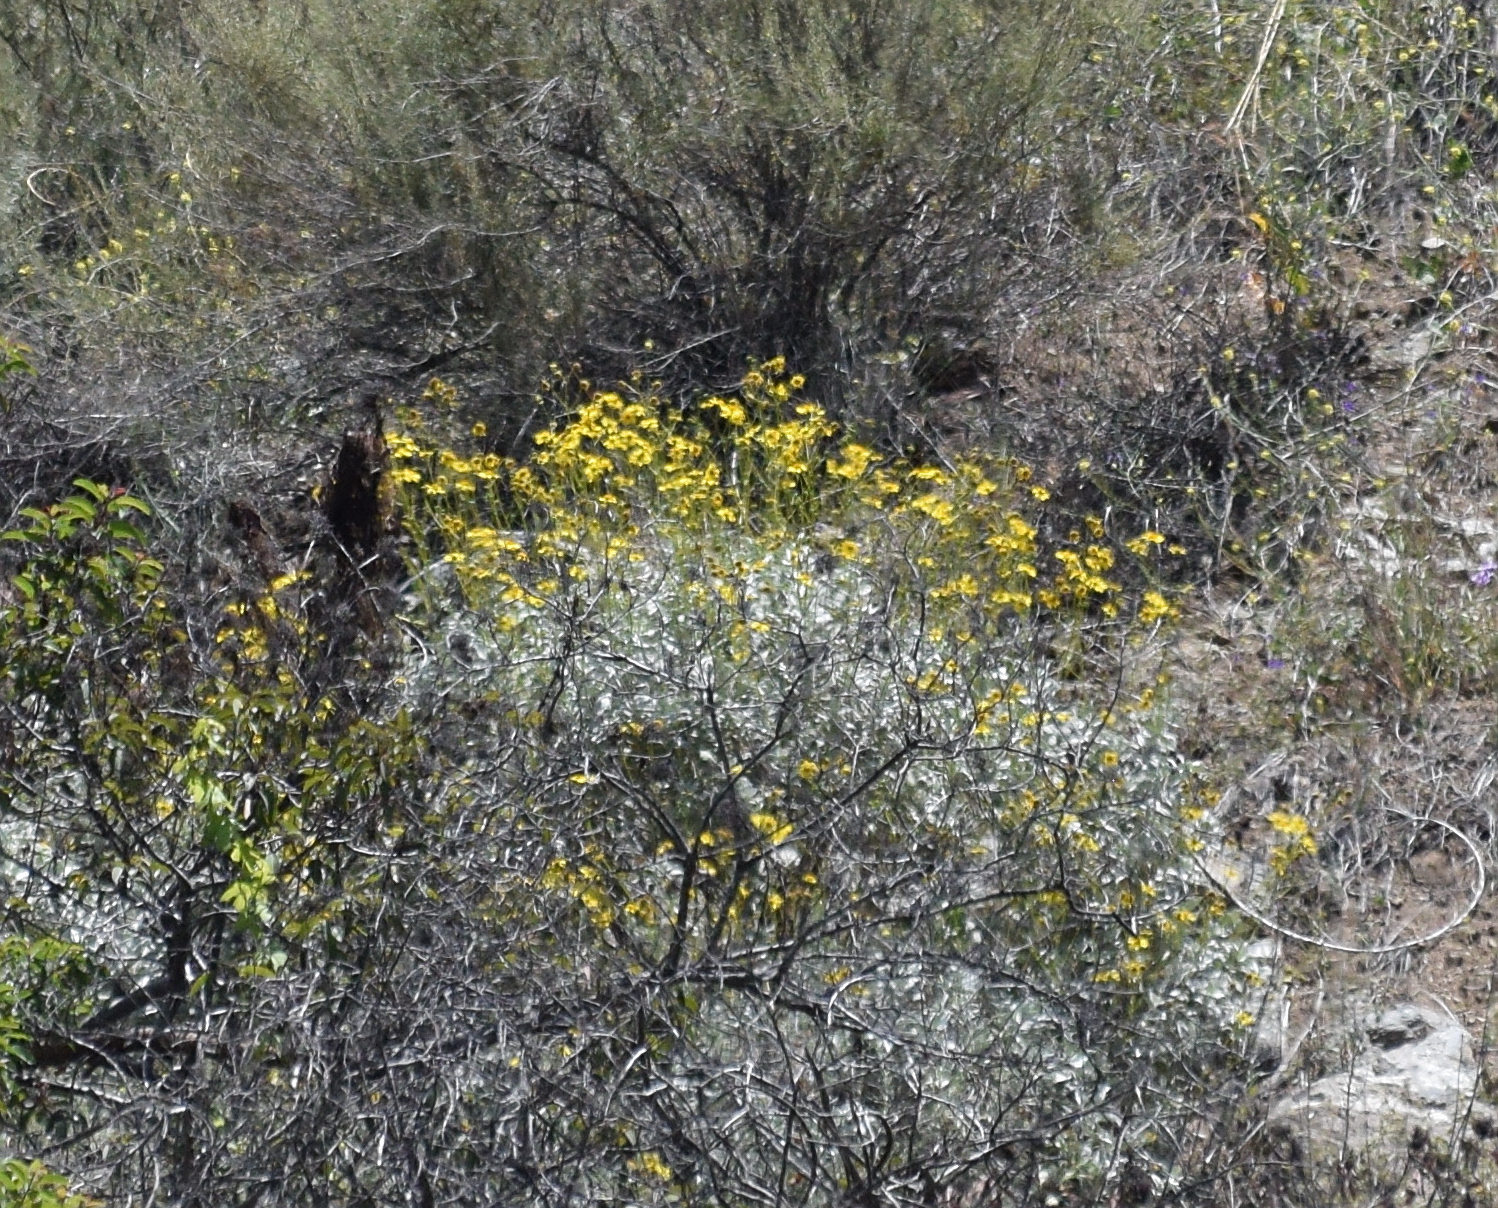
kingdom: Plantae
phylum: Tracheophyta
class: Magnoliopsida
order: Asterales
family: Asteraceae
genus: Encelia
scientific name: Encelia farinosa
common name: Brittlebush
